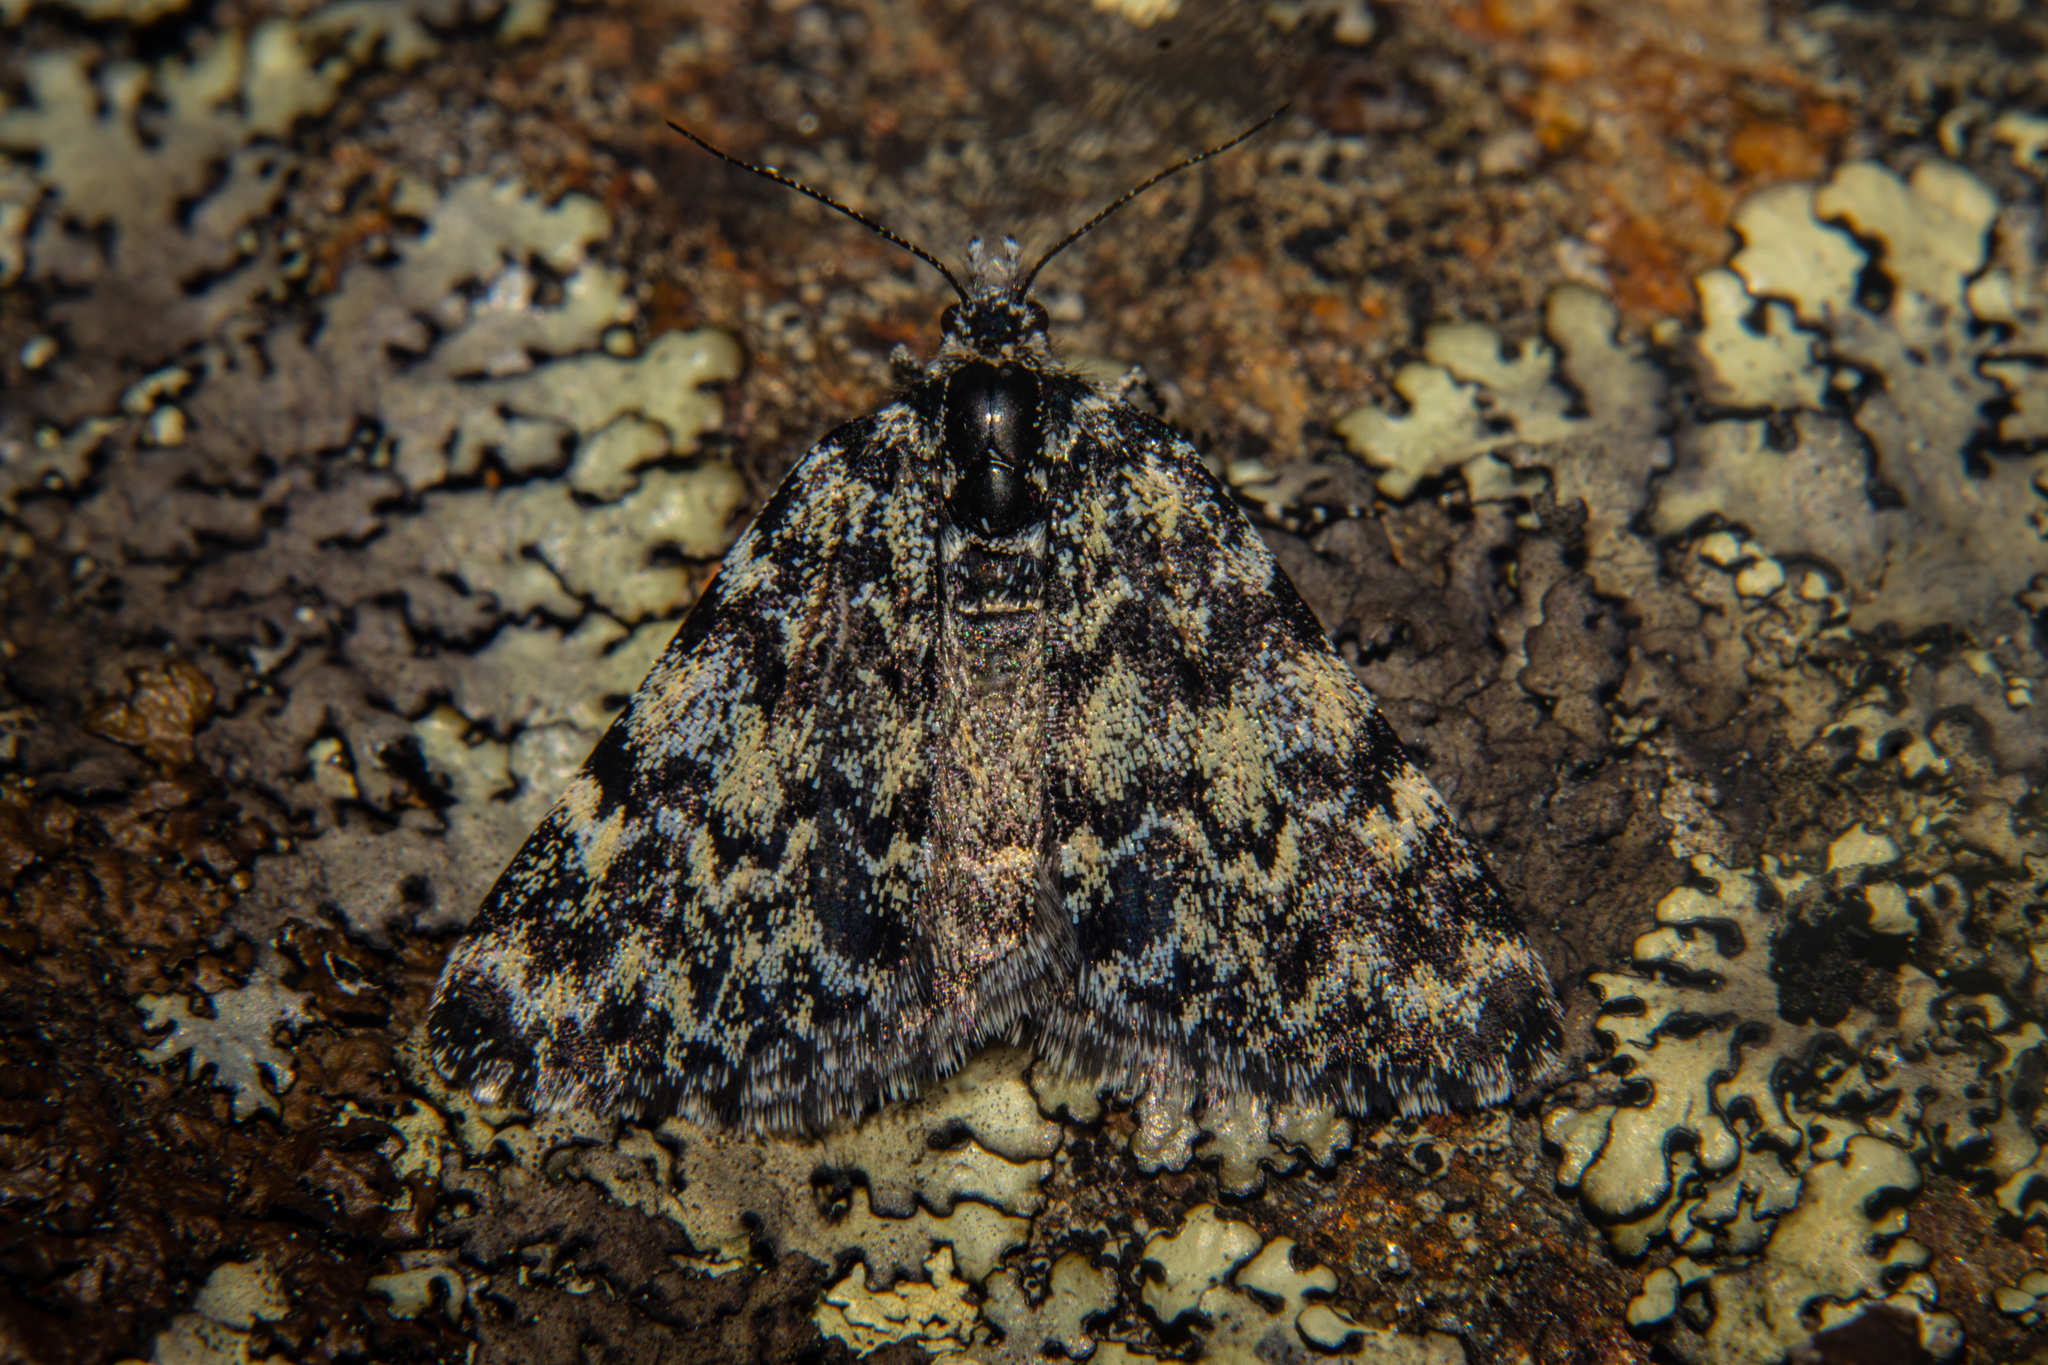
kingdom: Animalia
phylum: Arthropoda
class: Insecta
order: Lepidoptera
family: Geometridae
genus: Dichromodes
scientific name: Dichromodes ida
